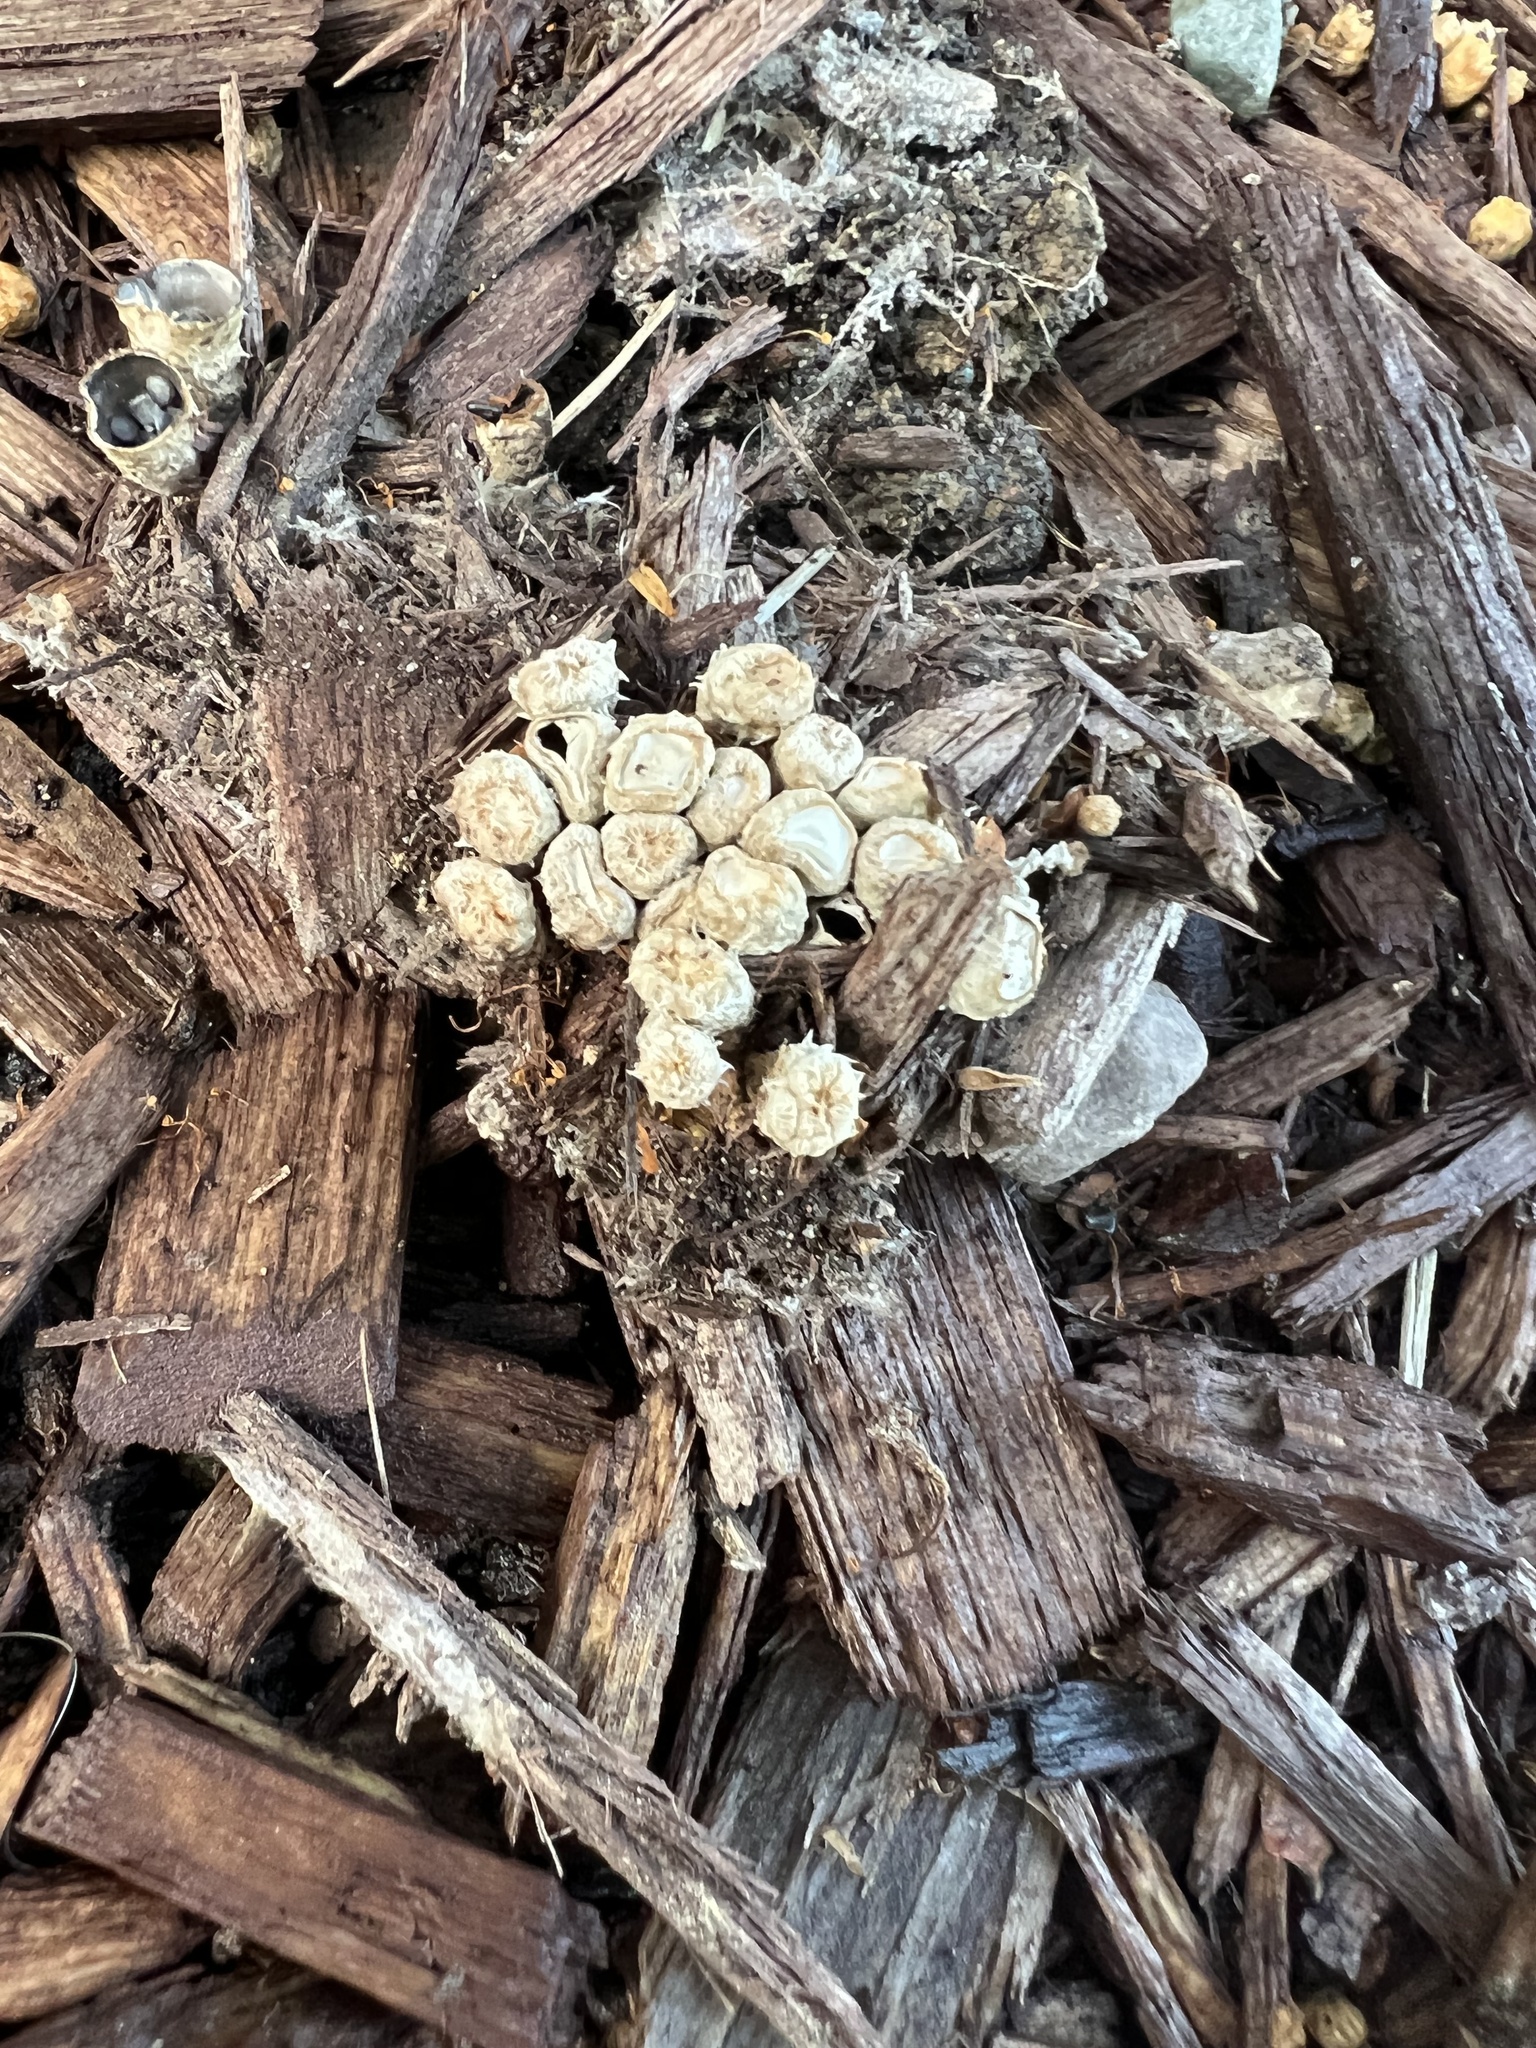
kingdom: Fungi
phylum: Basidiomycota
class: Agaricomycetes
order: Agaricales
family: Agaricaceae
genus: Cyathus
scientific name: Cyathus stercoreus
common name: Dung bird's nest
